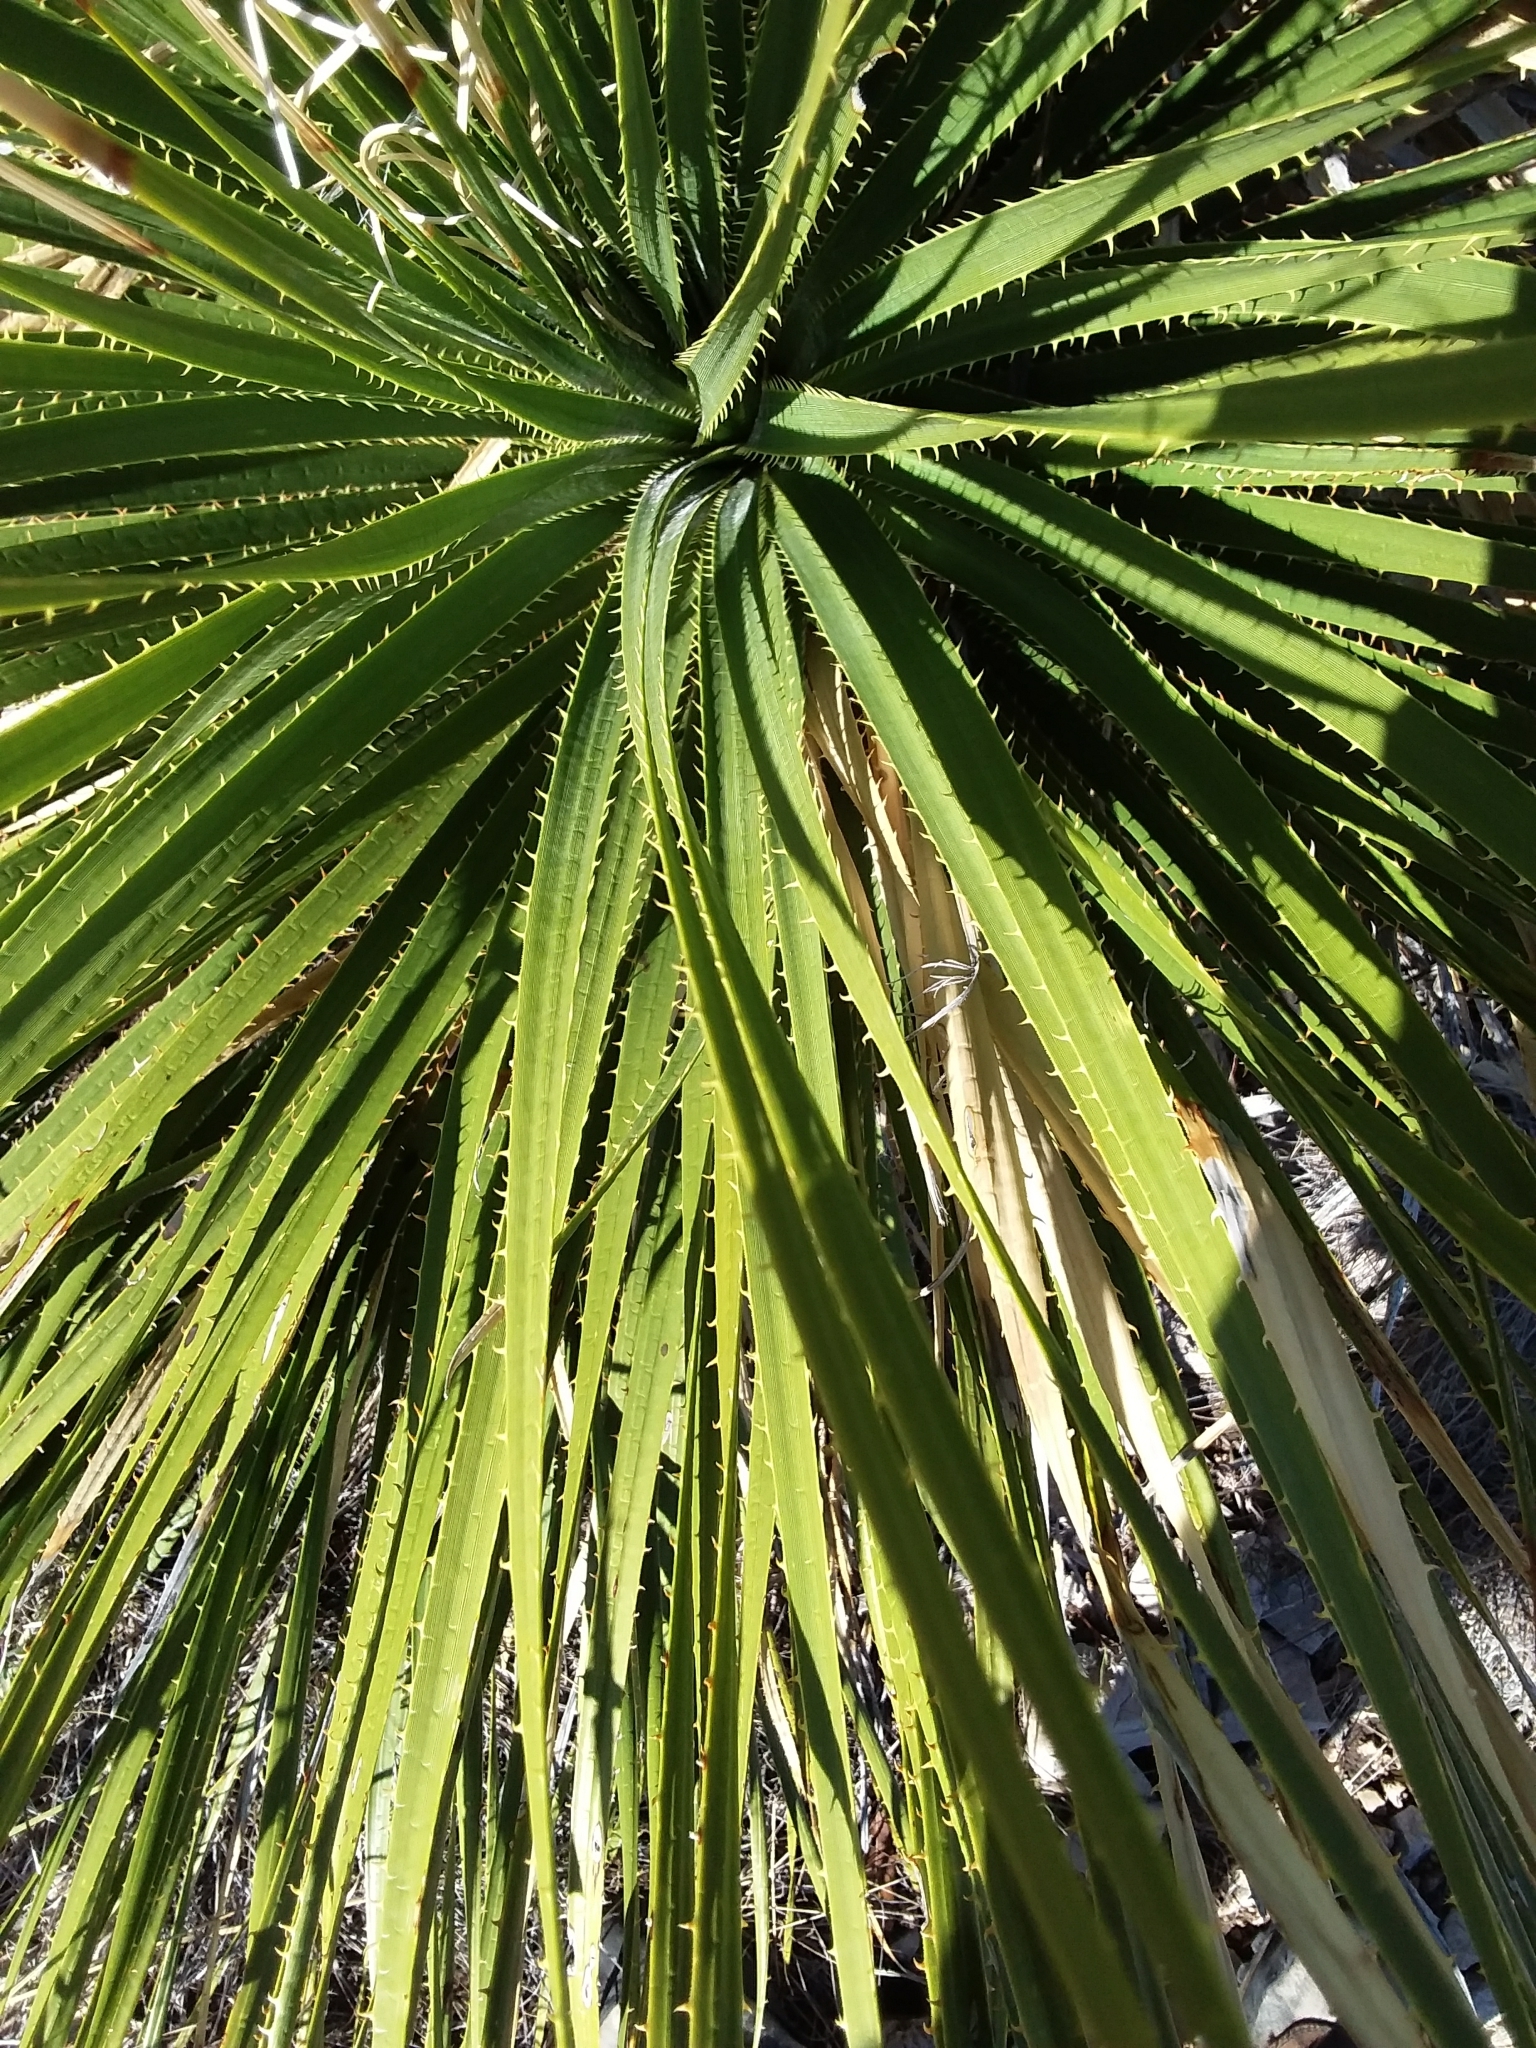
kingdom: Plantae
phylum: Tracheophyta
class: Liliopsida
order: Asparagales
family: Asparagaceae
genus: Dasylirion
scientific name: Dasylirion leiophyllum
